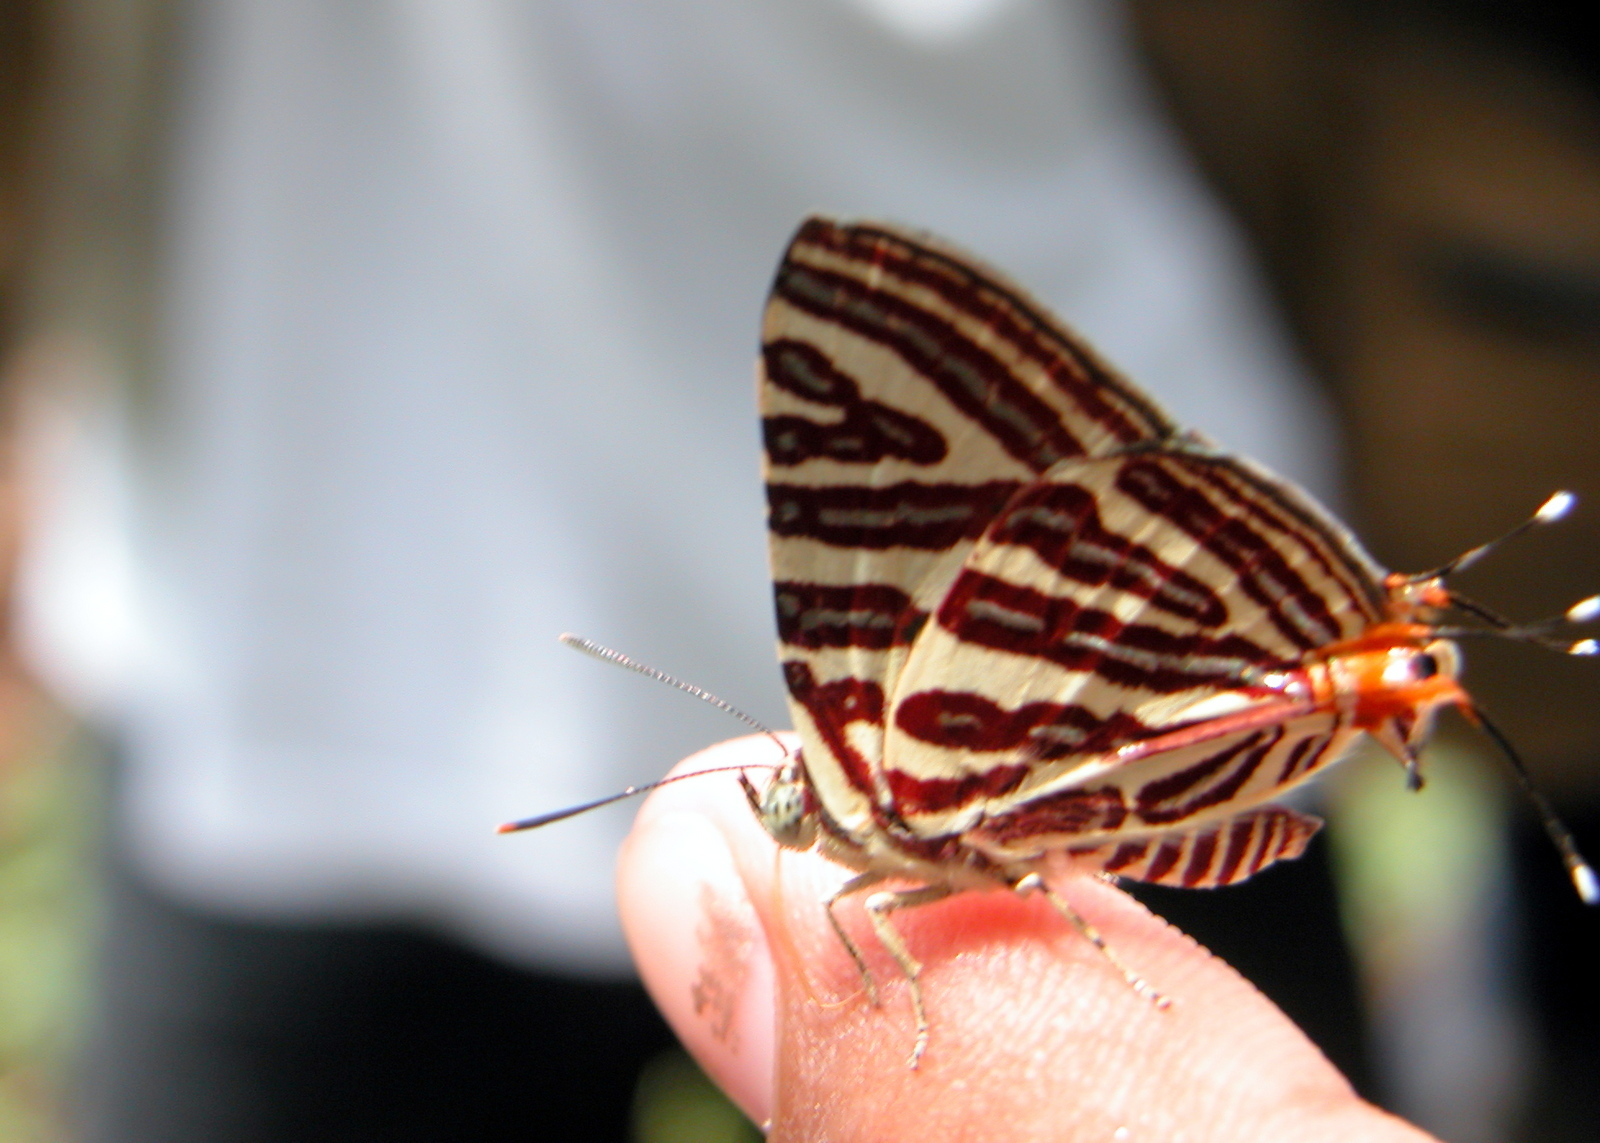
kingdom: Animalia
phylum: Arthropoda
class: Insecta
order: Lepidoptera
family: Lycaenidae
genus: Cigaritis
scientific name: Cigaritis lohita
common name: Long-banded silverline
